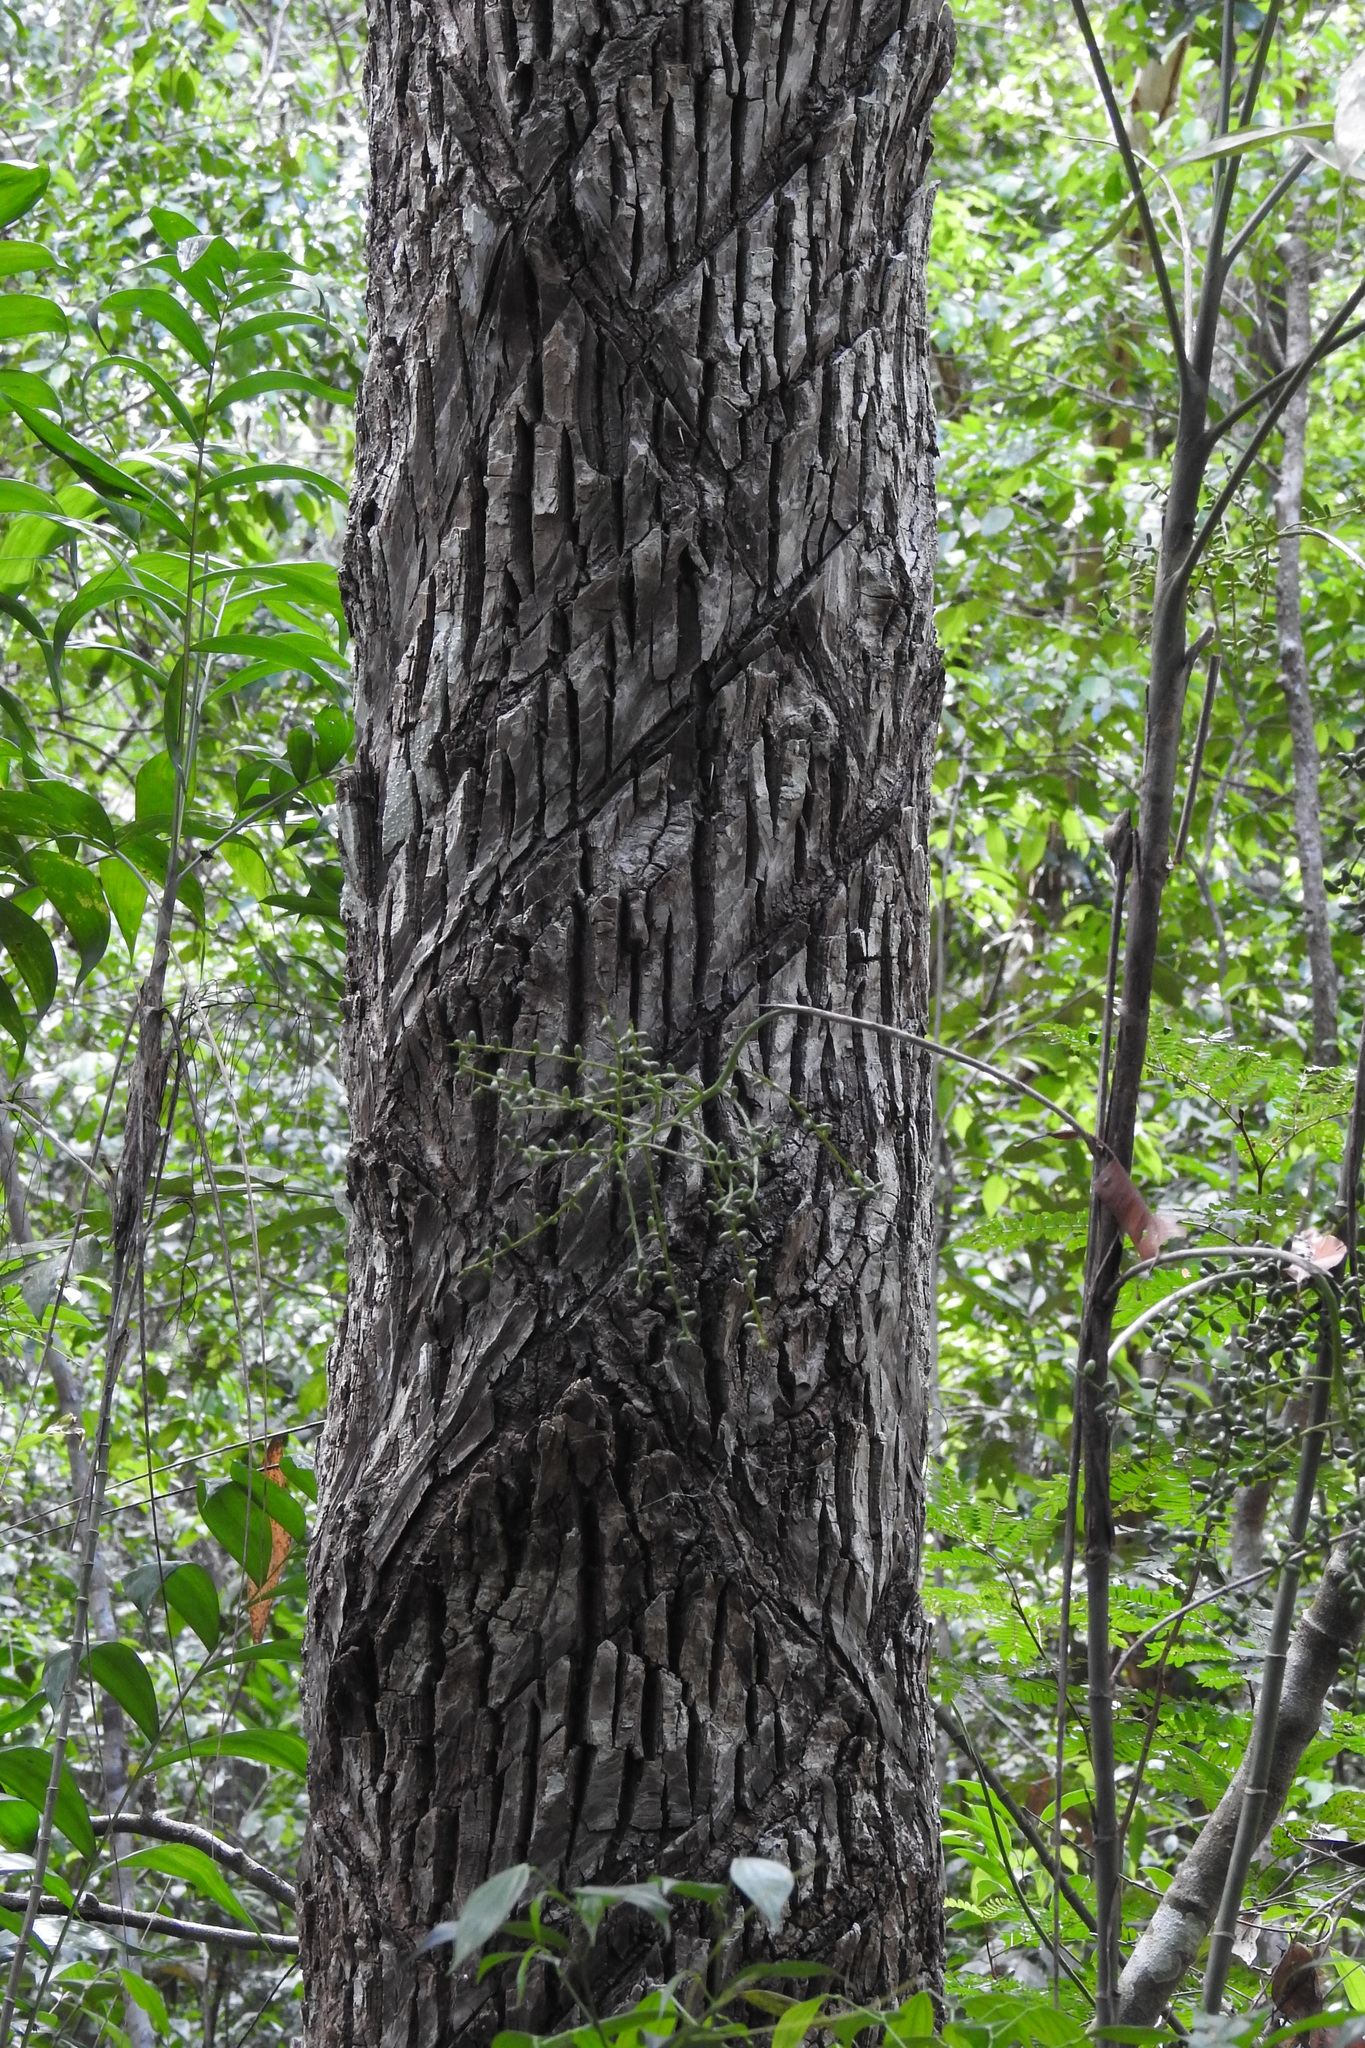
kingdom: Plantae
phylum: Tracheophyta
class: Magnoliopsida
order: Ericales
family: Sapotaceae
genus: Manilkara
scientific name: Manilkara zapota
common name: Sapodilla
